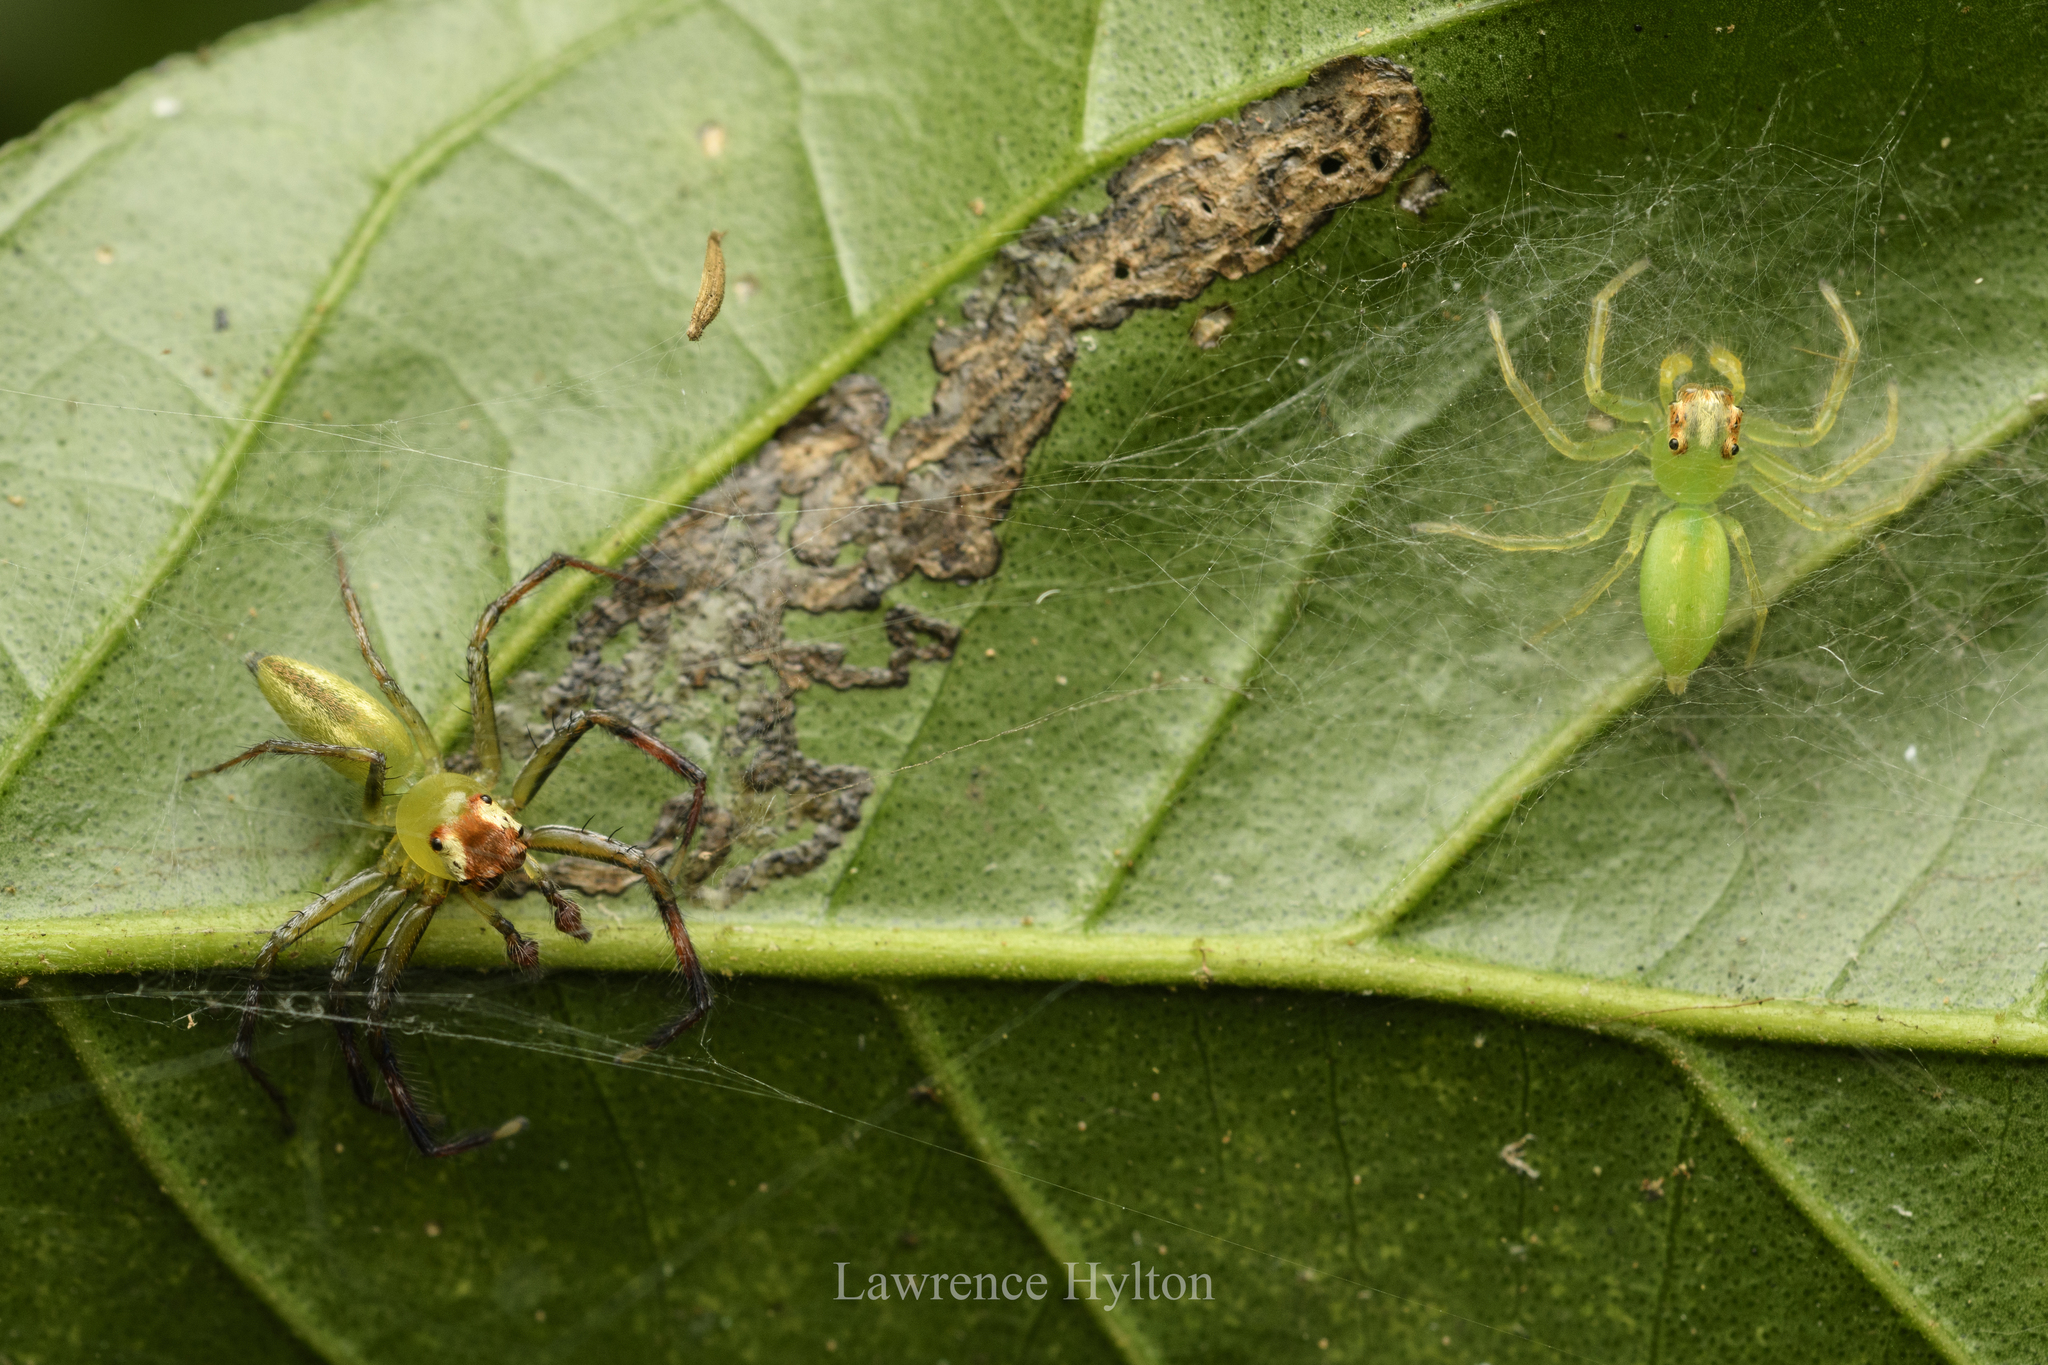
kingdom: Animalia
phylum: Arthropoda
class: Arachnida
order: Araneae
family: Salticidae
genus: Epeus
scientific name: Epeus glorius
